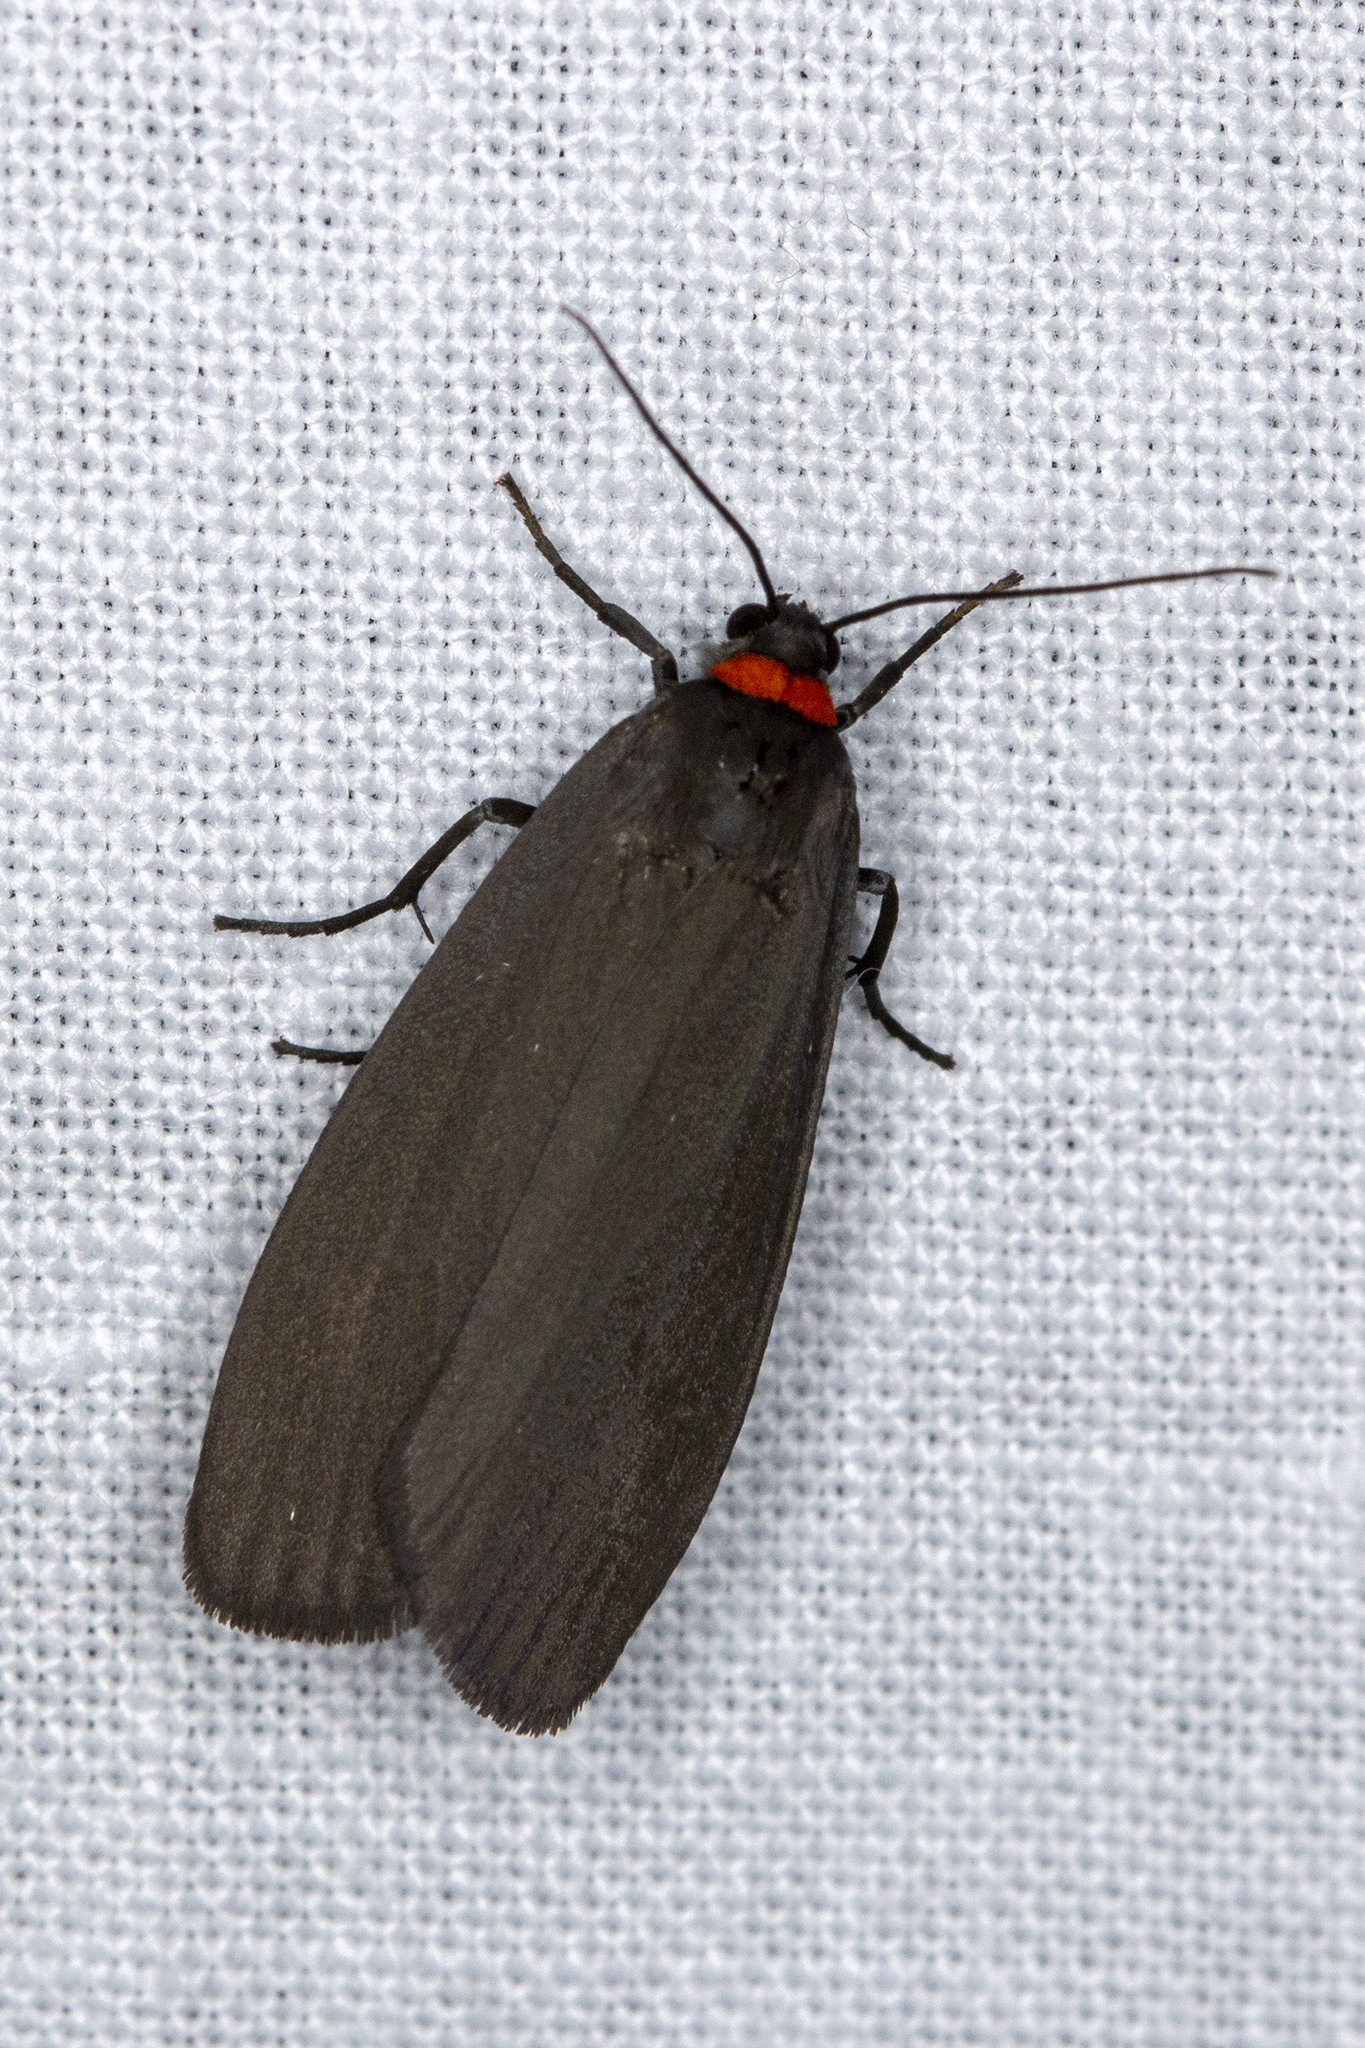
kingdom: Animalia
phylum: Arthropoda
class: Insecta
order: Lepidoptera
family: Erebidae
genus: Atolmis
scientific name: Atolmis rubricollis
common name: Red-necked footman
